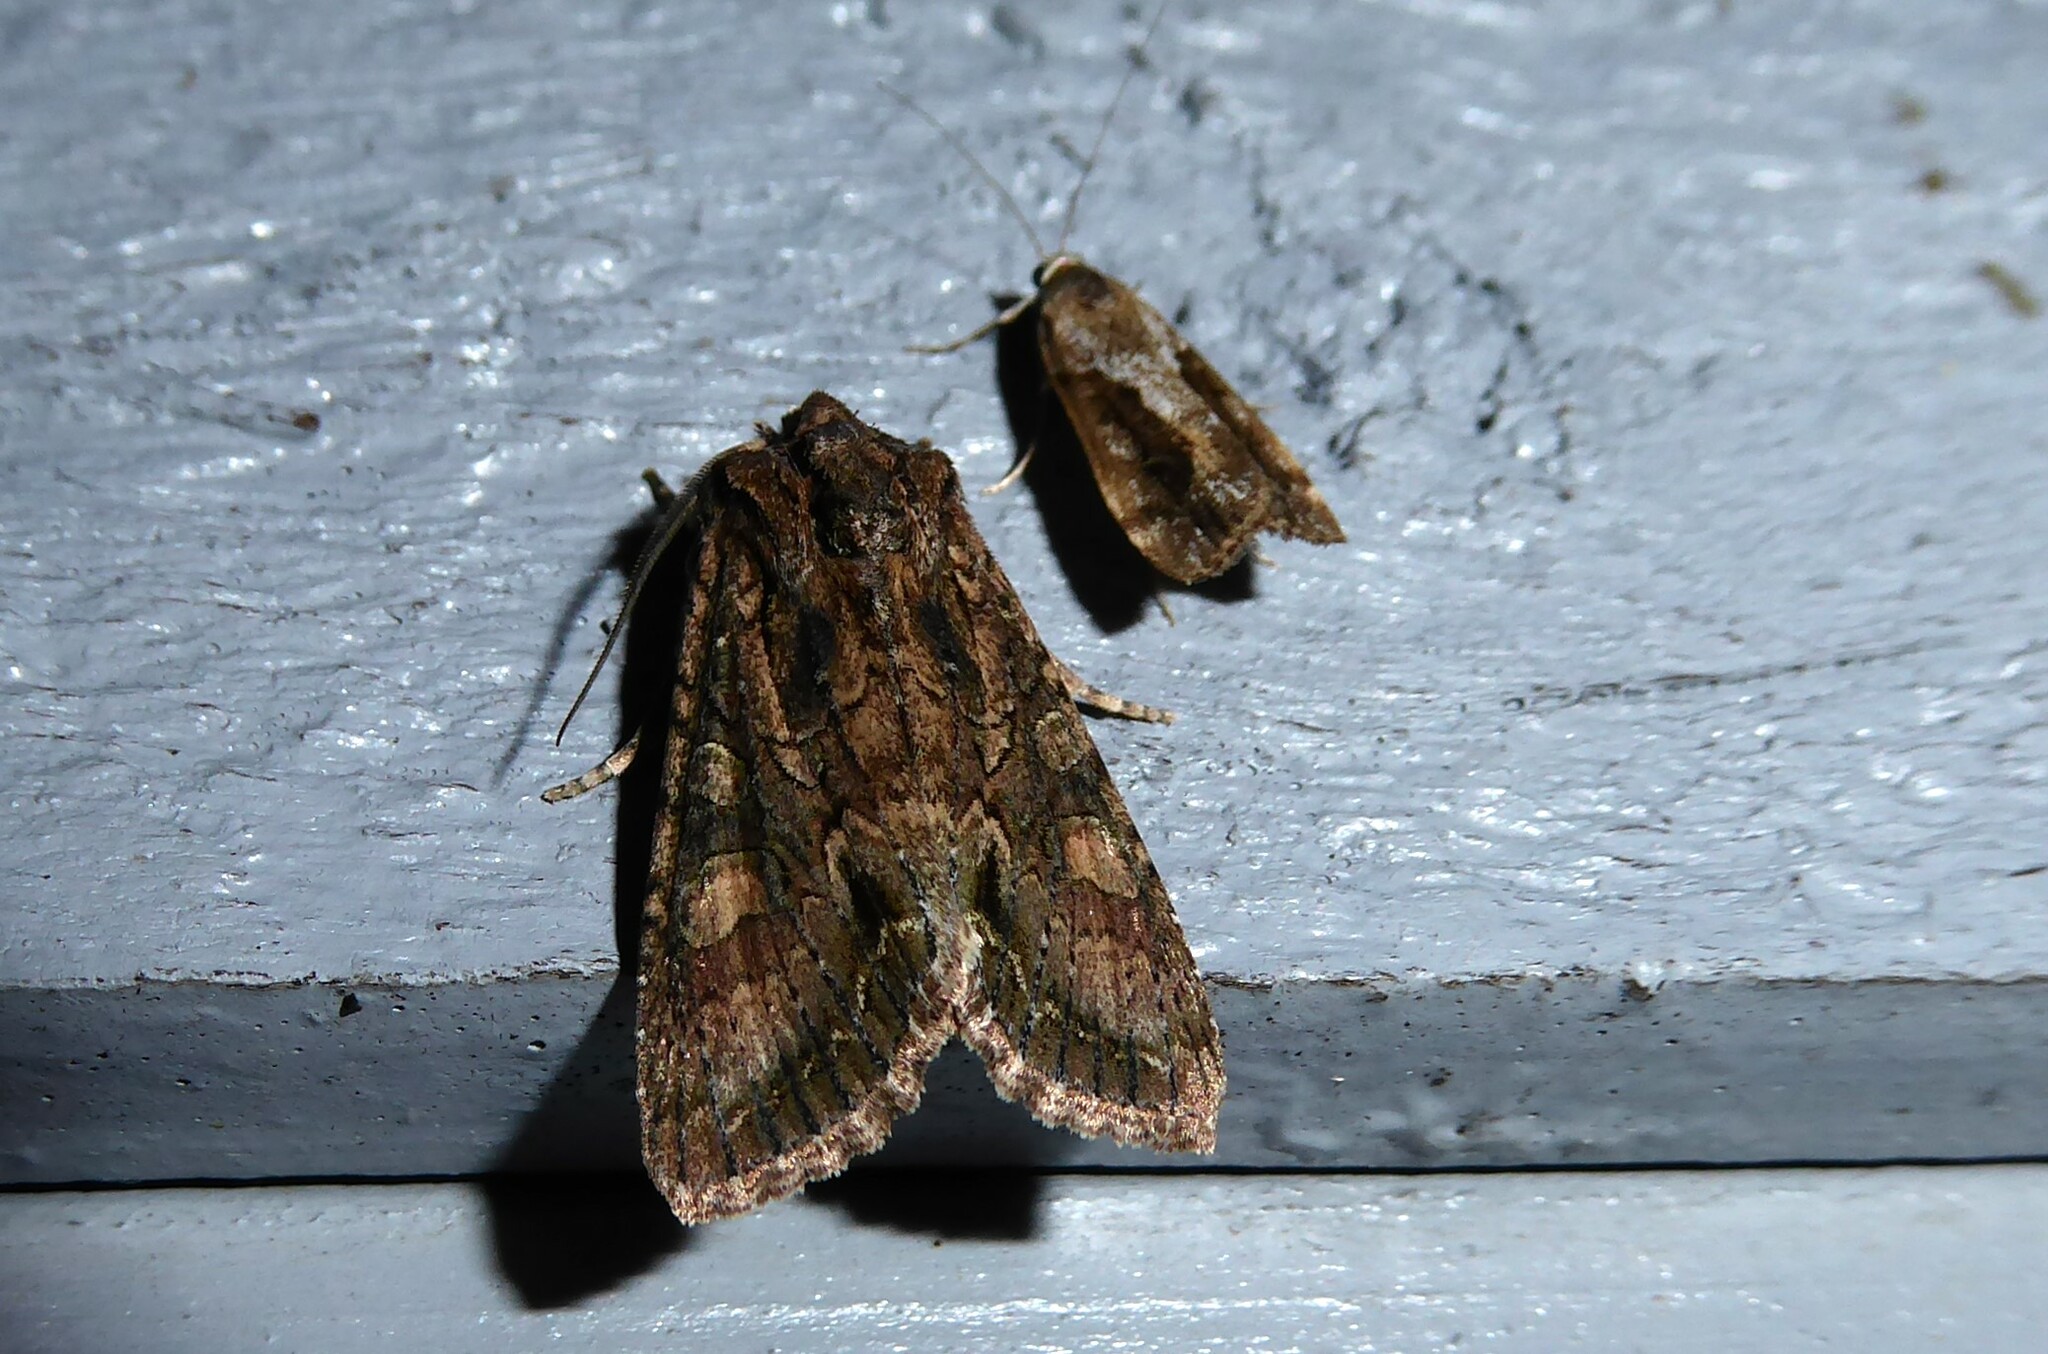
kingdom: Animalia
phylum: Arthropoda
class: Insecta
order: Lepidoptera
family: Noctuidae
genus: Ichneutica
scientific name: Ichneutica mutans
